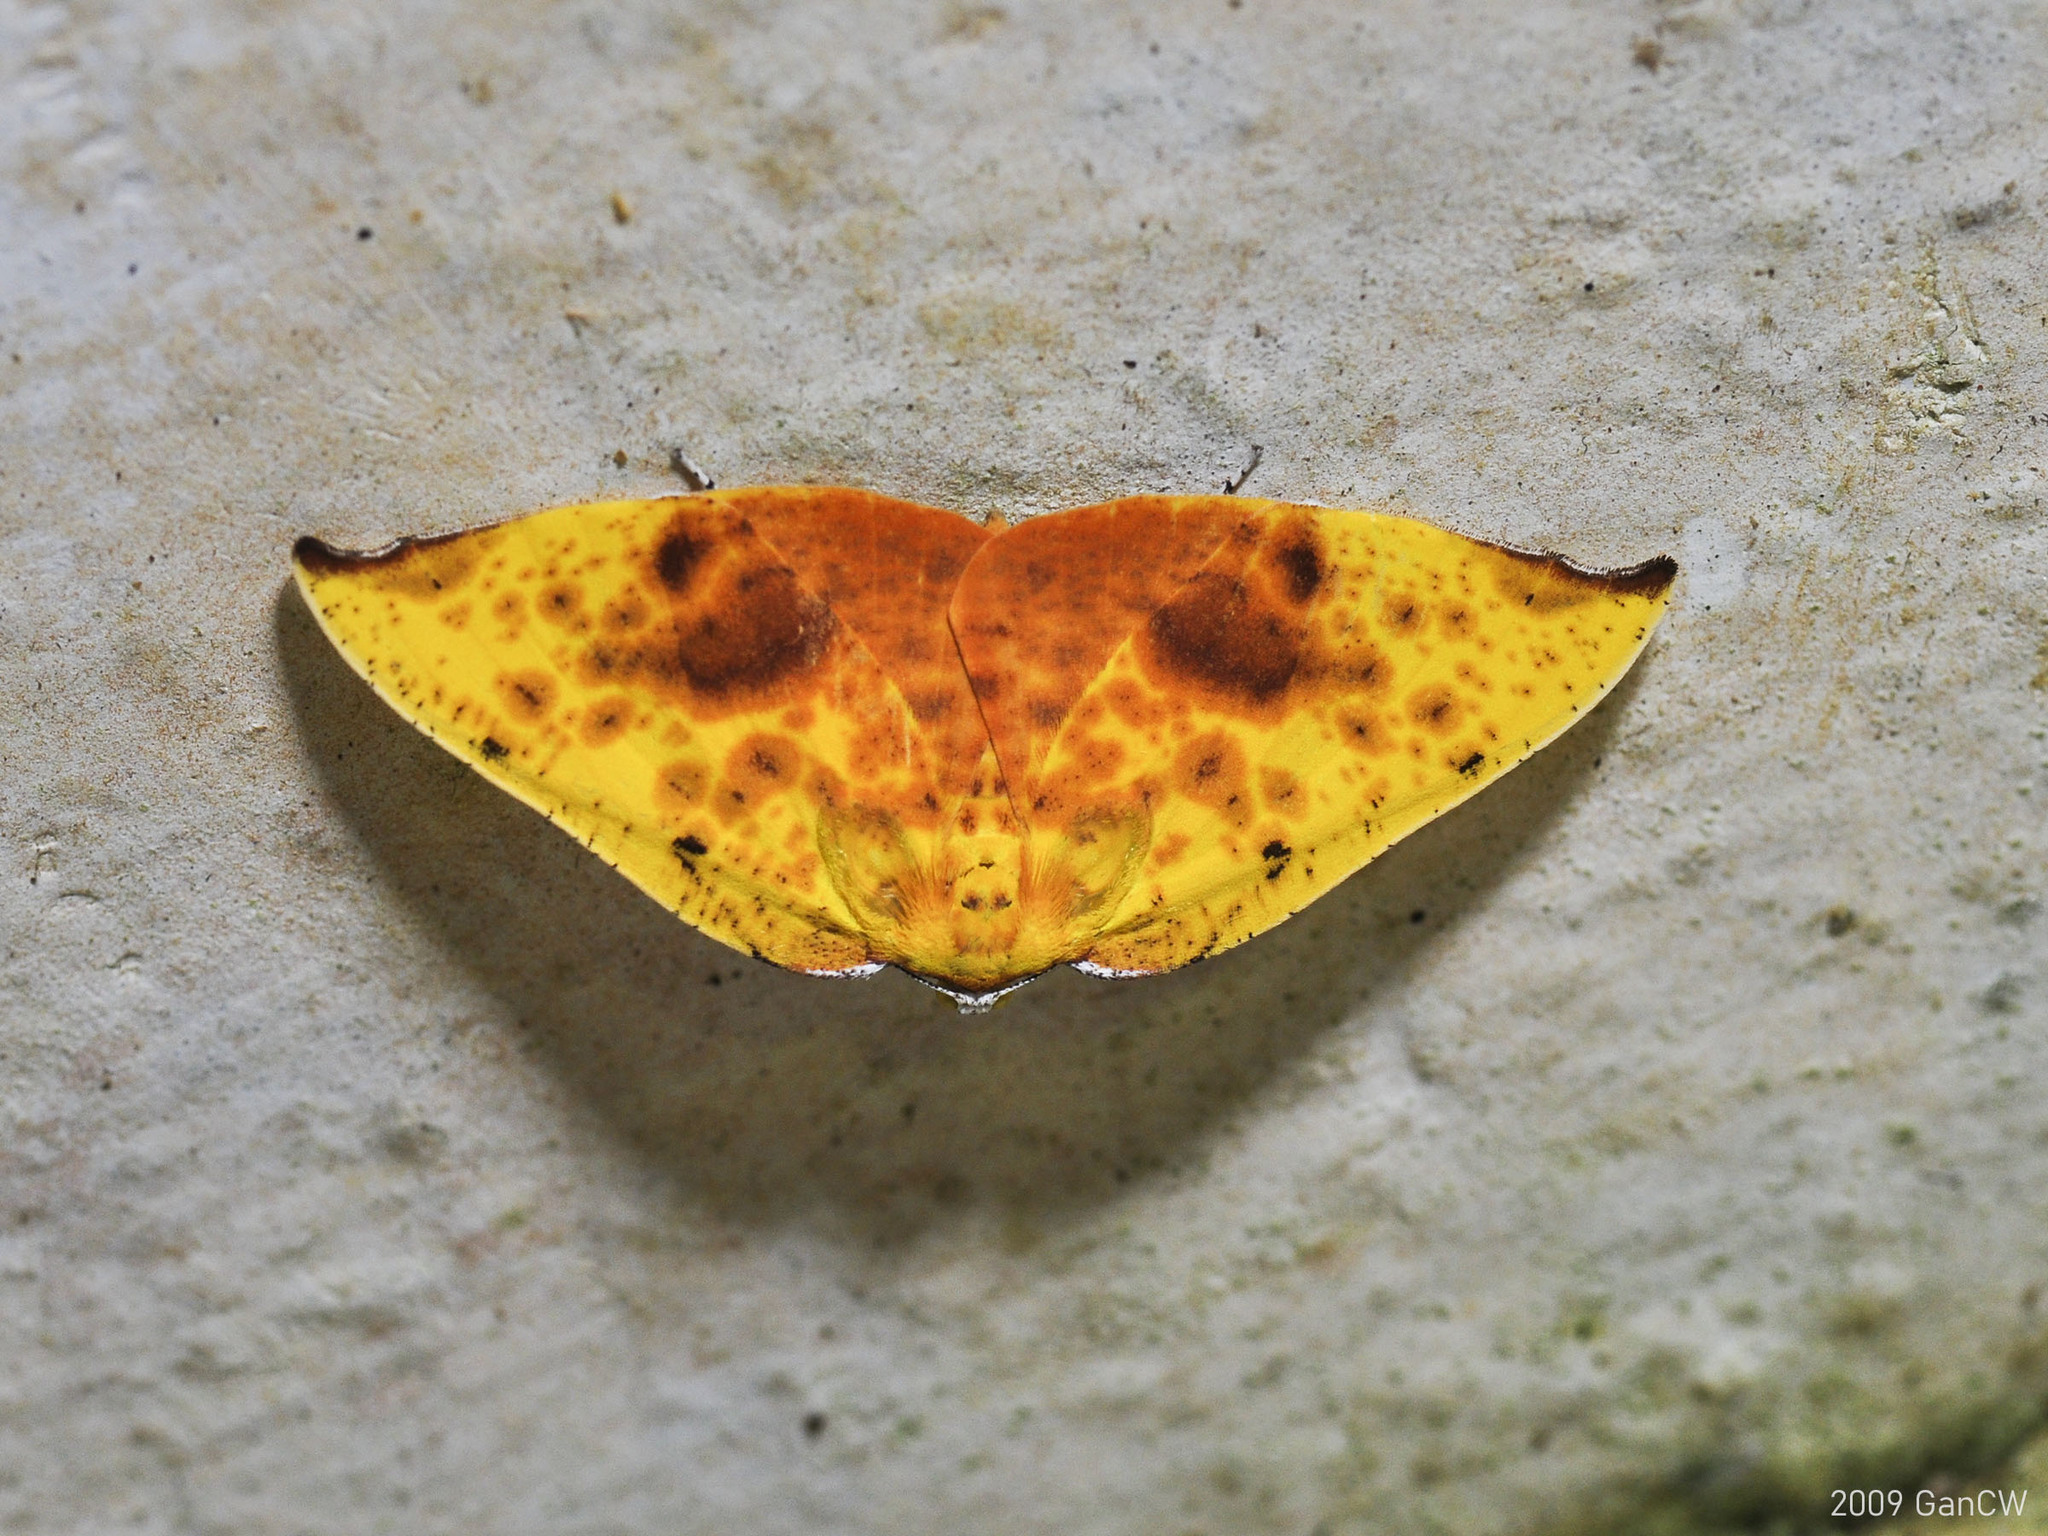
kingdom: Animalia
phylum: Arthropoda
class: Insecta
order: Lepidoptera
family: Geometridae
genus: Corymica
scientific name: Corymica fulvimaculata
